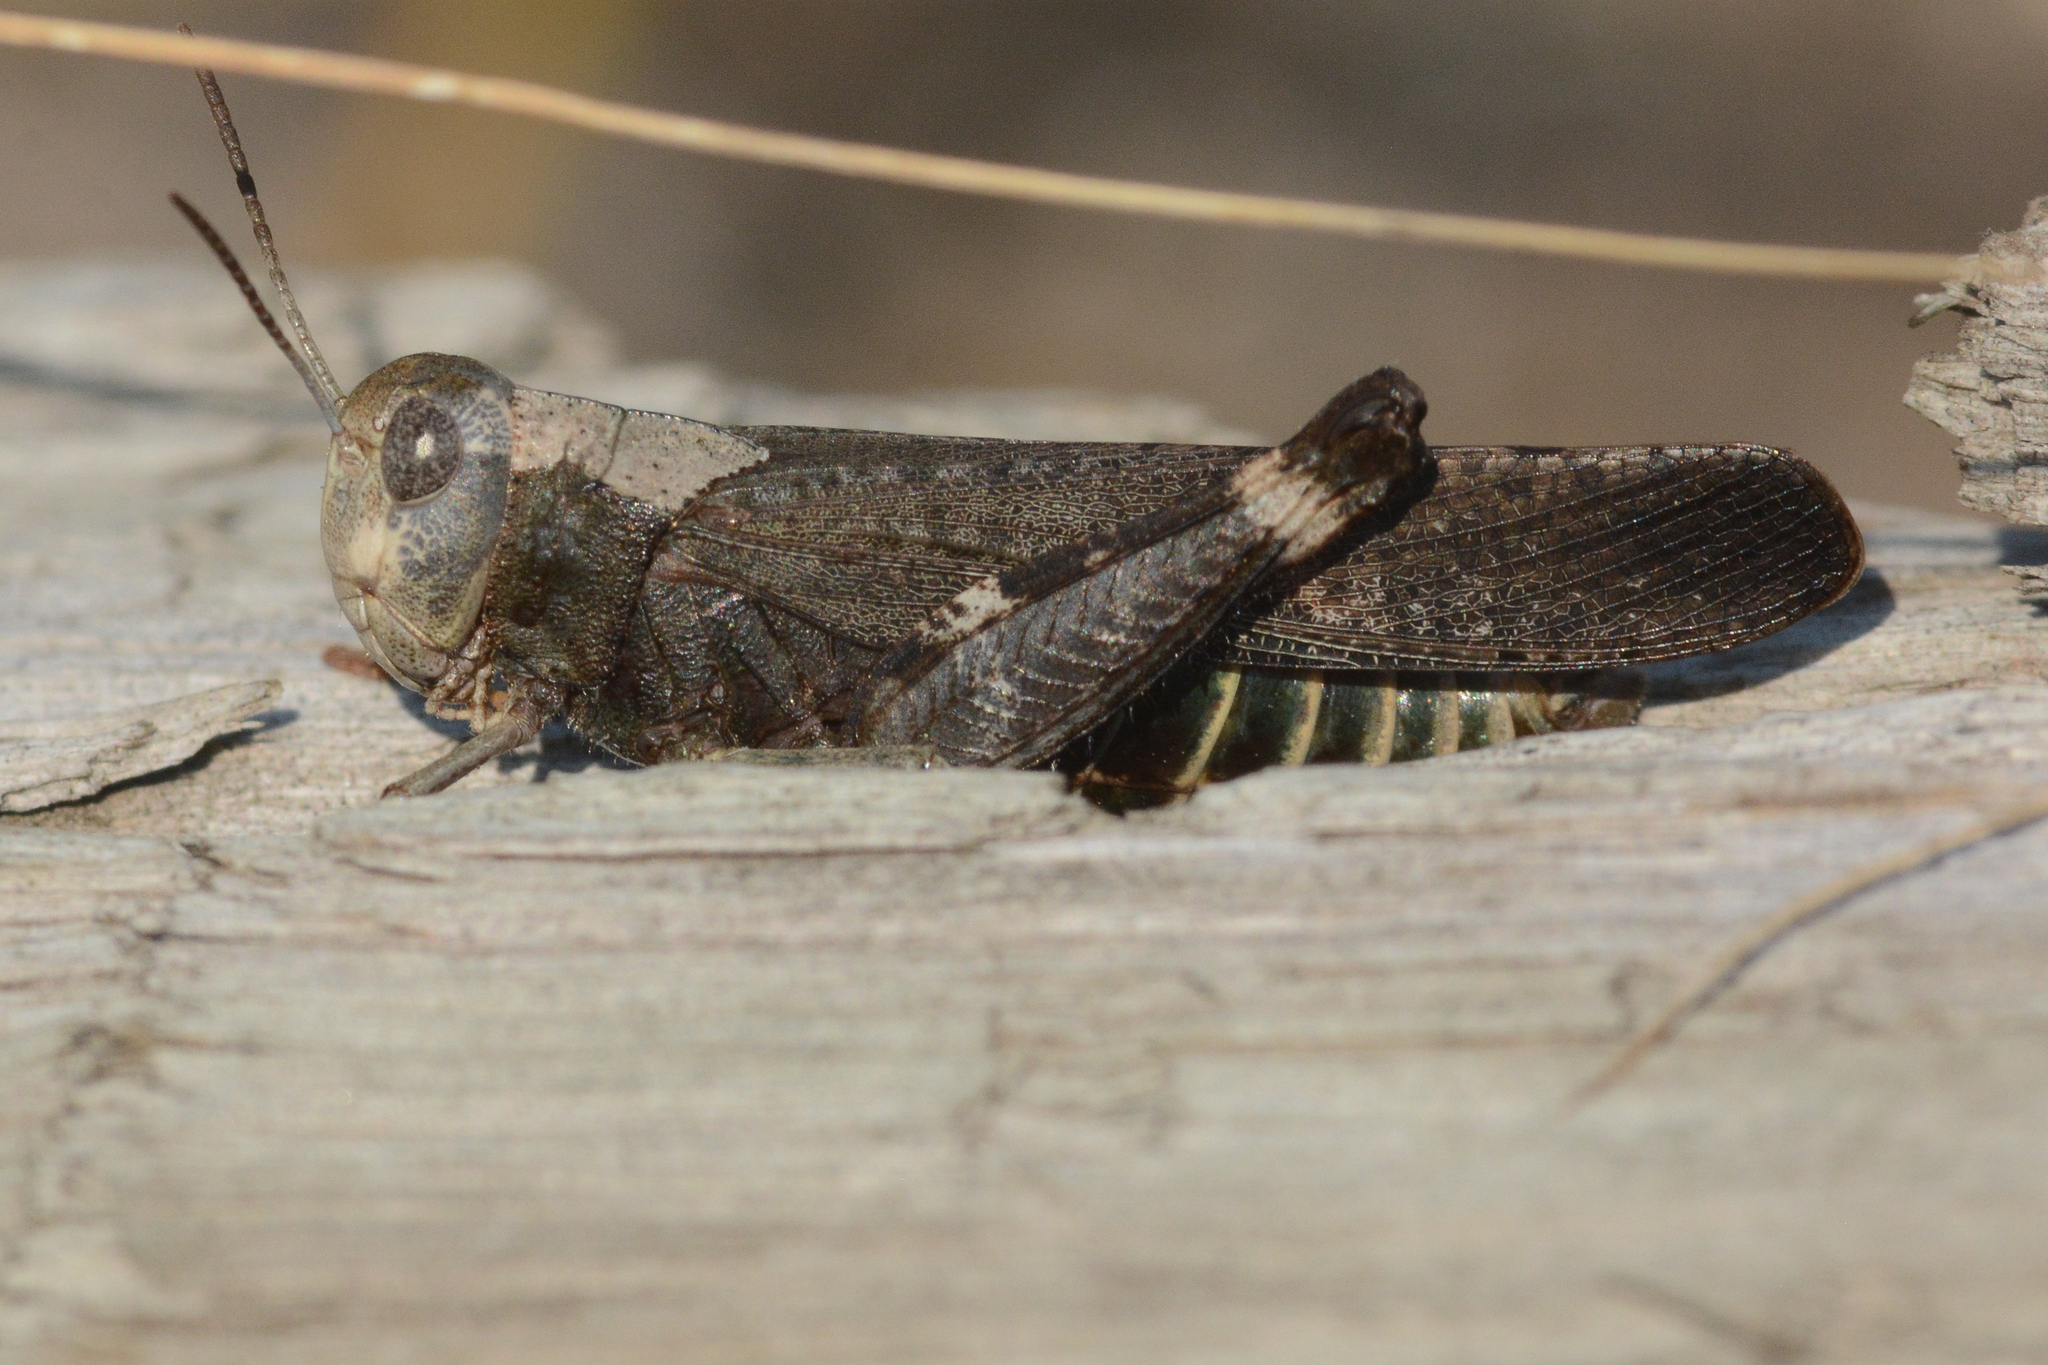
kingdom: Animalia
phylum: Arthropoda
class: Insecta
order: Orthoptera
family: Acrididae
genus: Arphia
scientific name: Arphia pseudo-nietana
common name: Red-winged grasshopper
